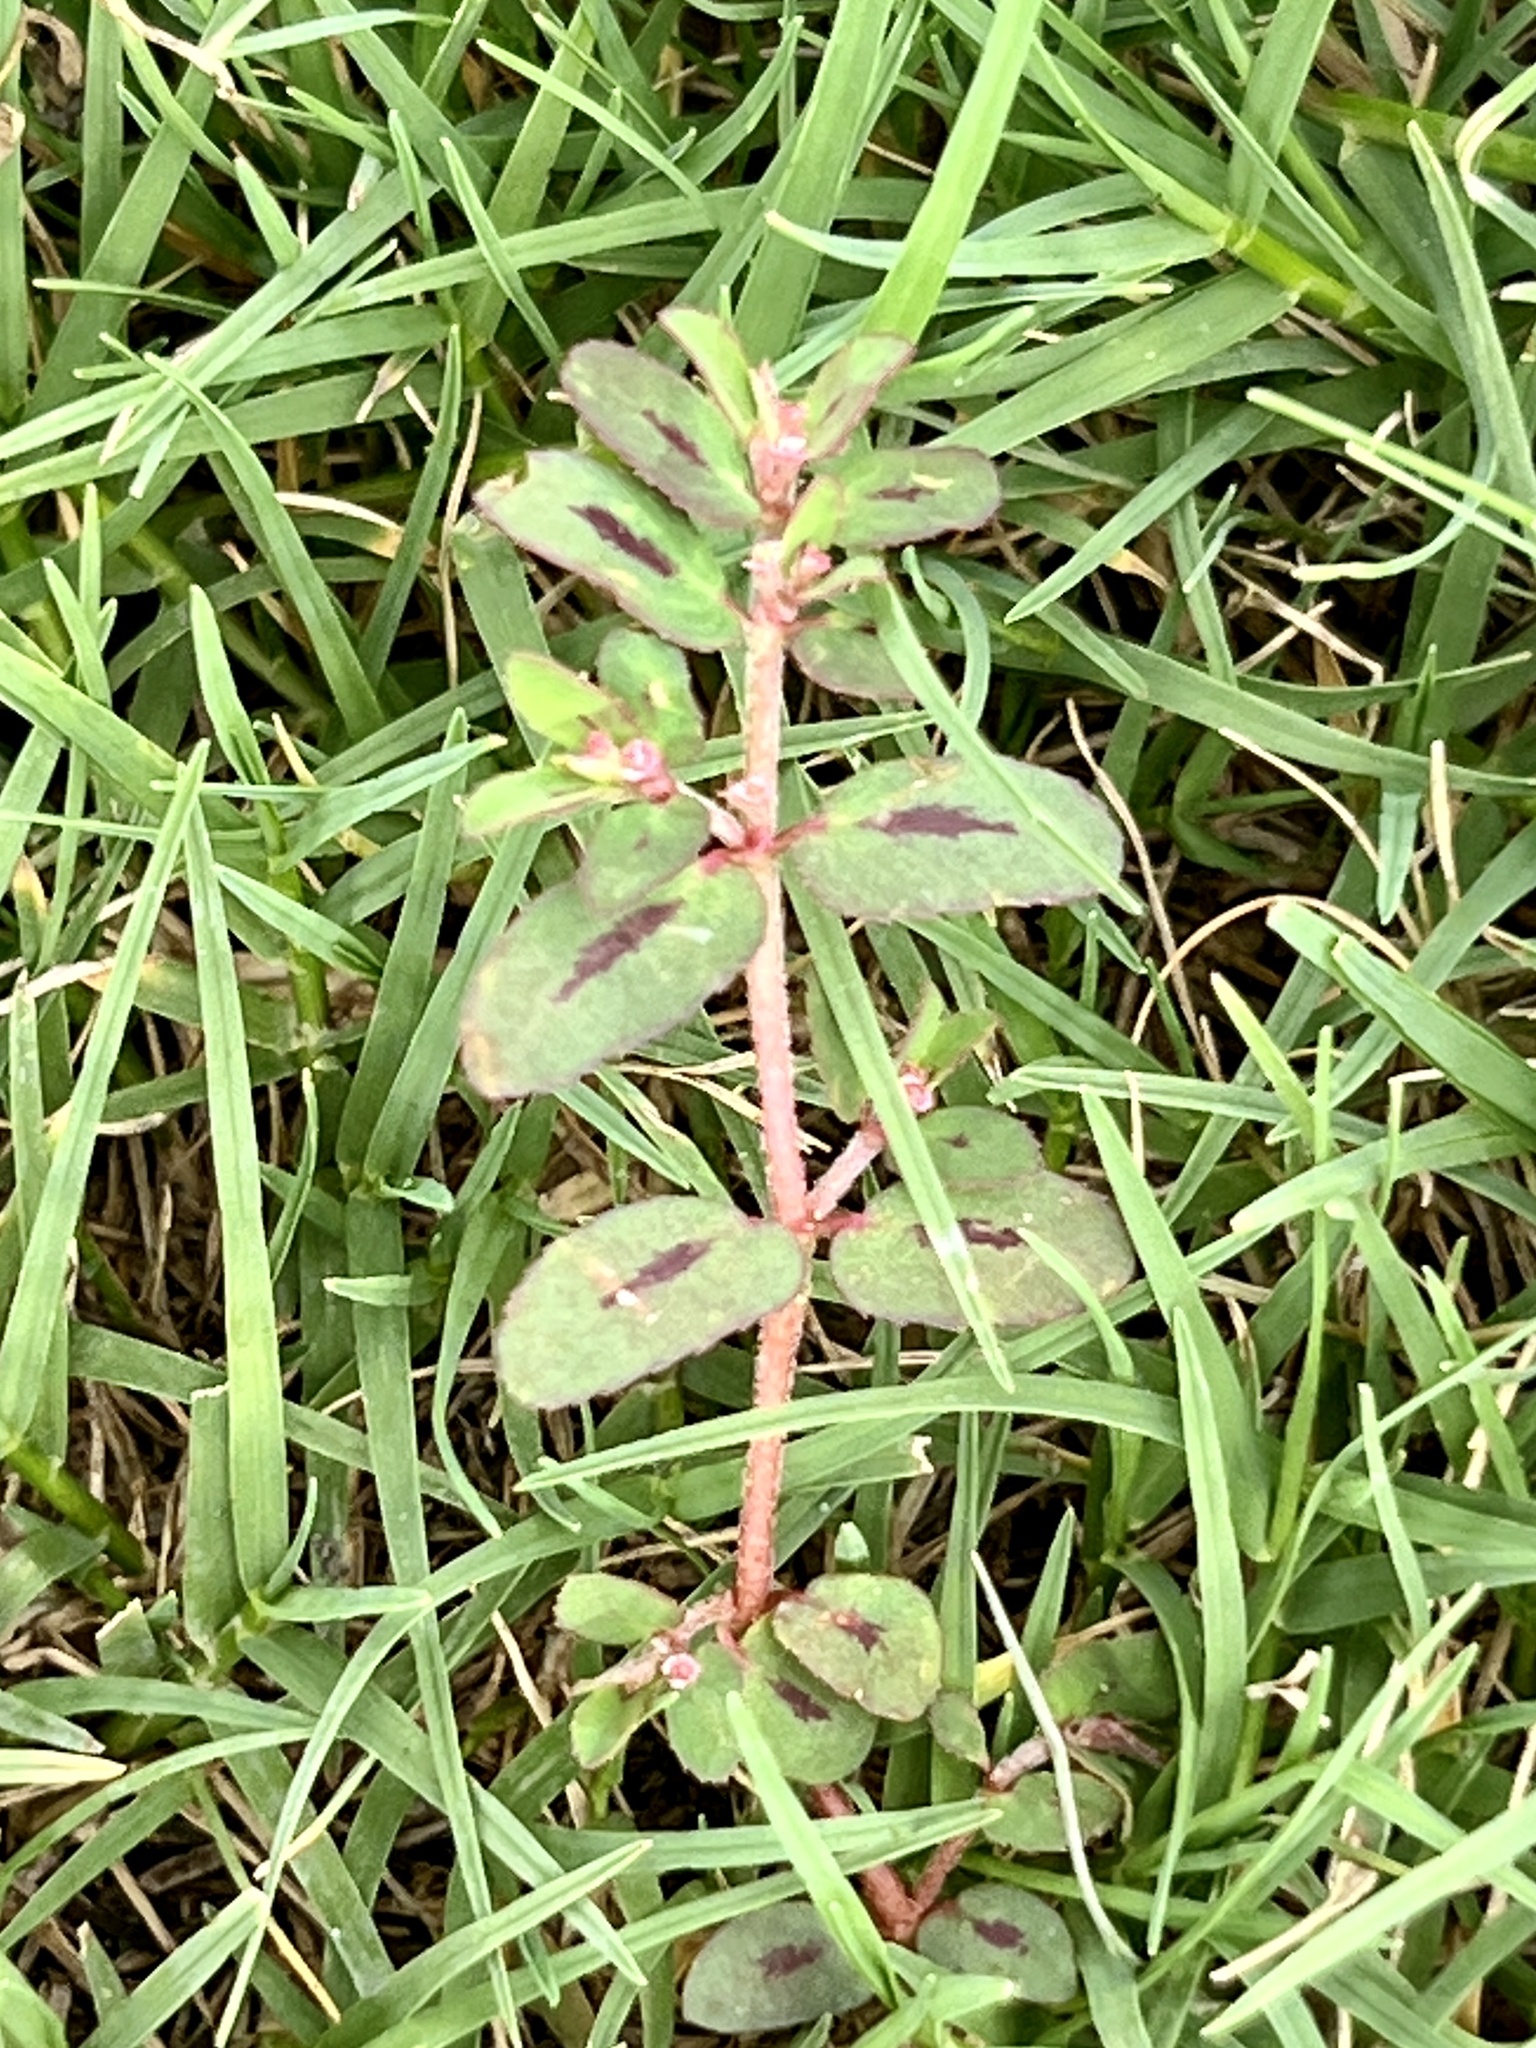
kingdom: Plantae
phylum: Tracheophyta
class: Magnoliopsida
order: Malpighiales
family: Euphorbiaceae
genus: Euphorbia
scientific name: Euphorbia maculata
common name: Spotted spurge
